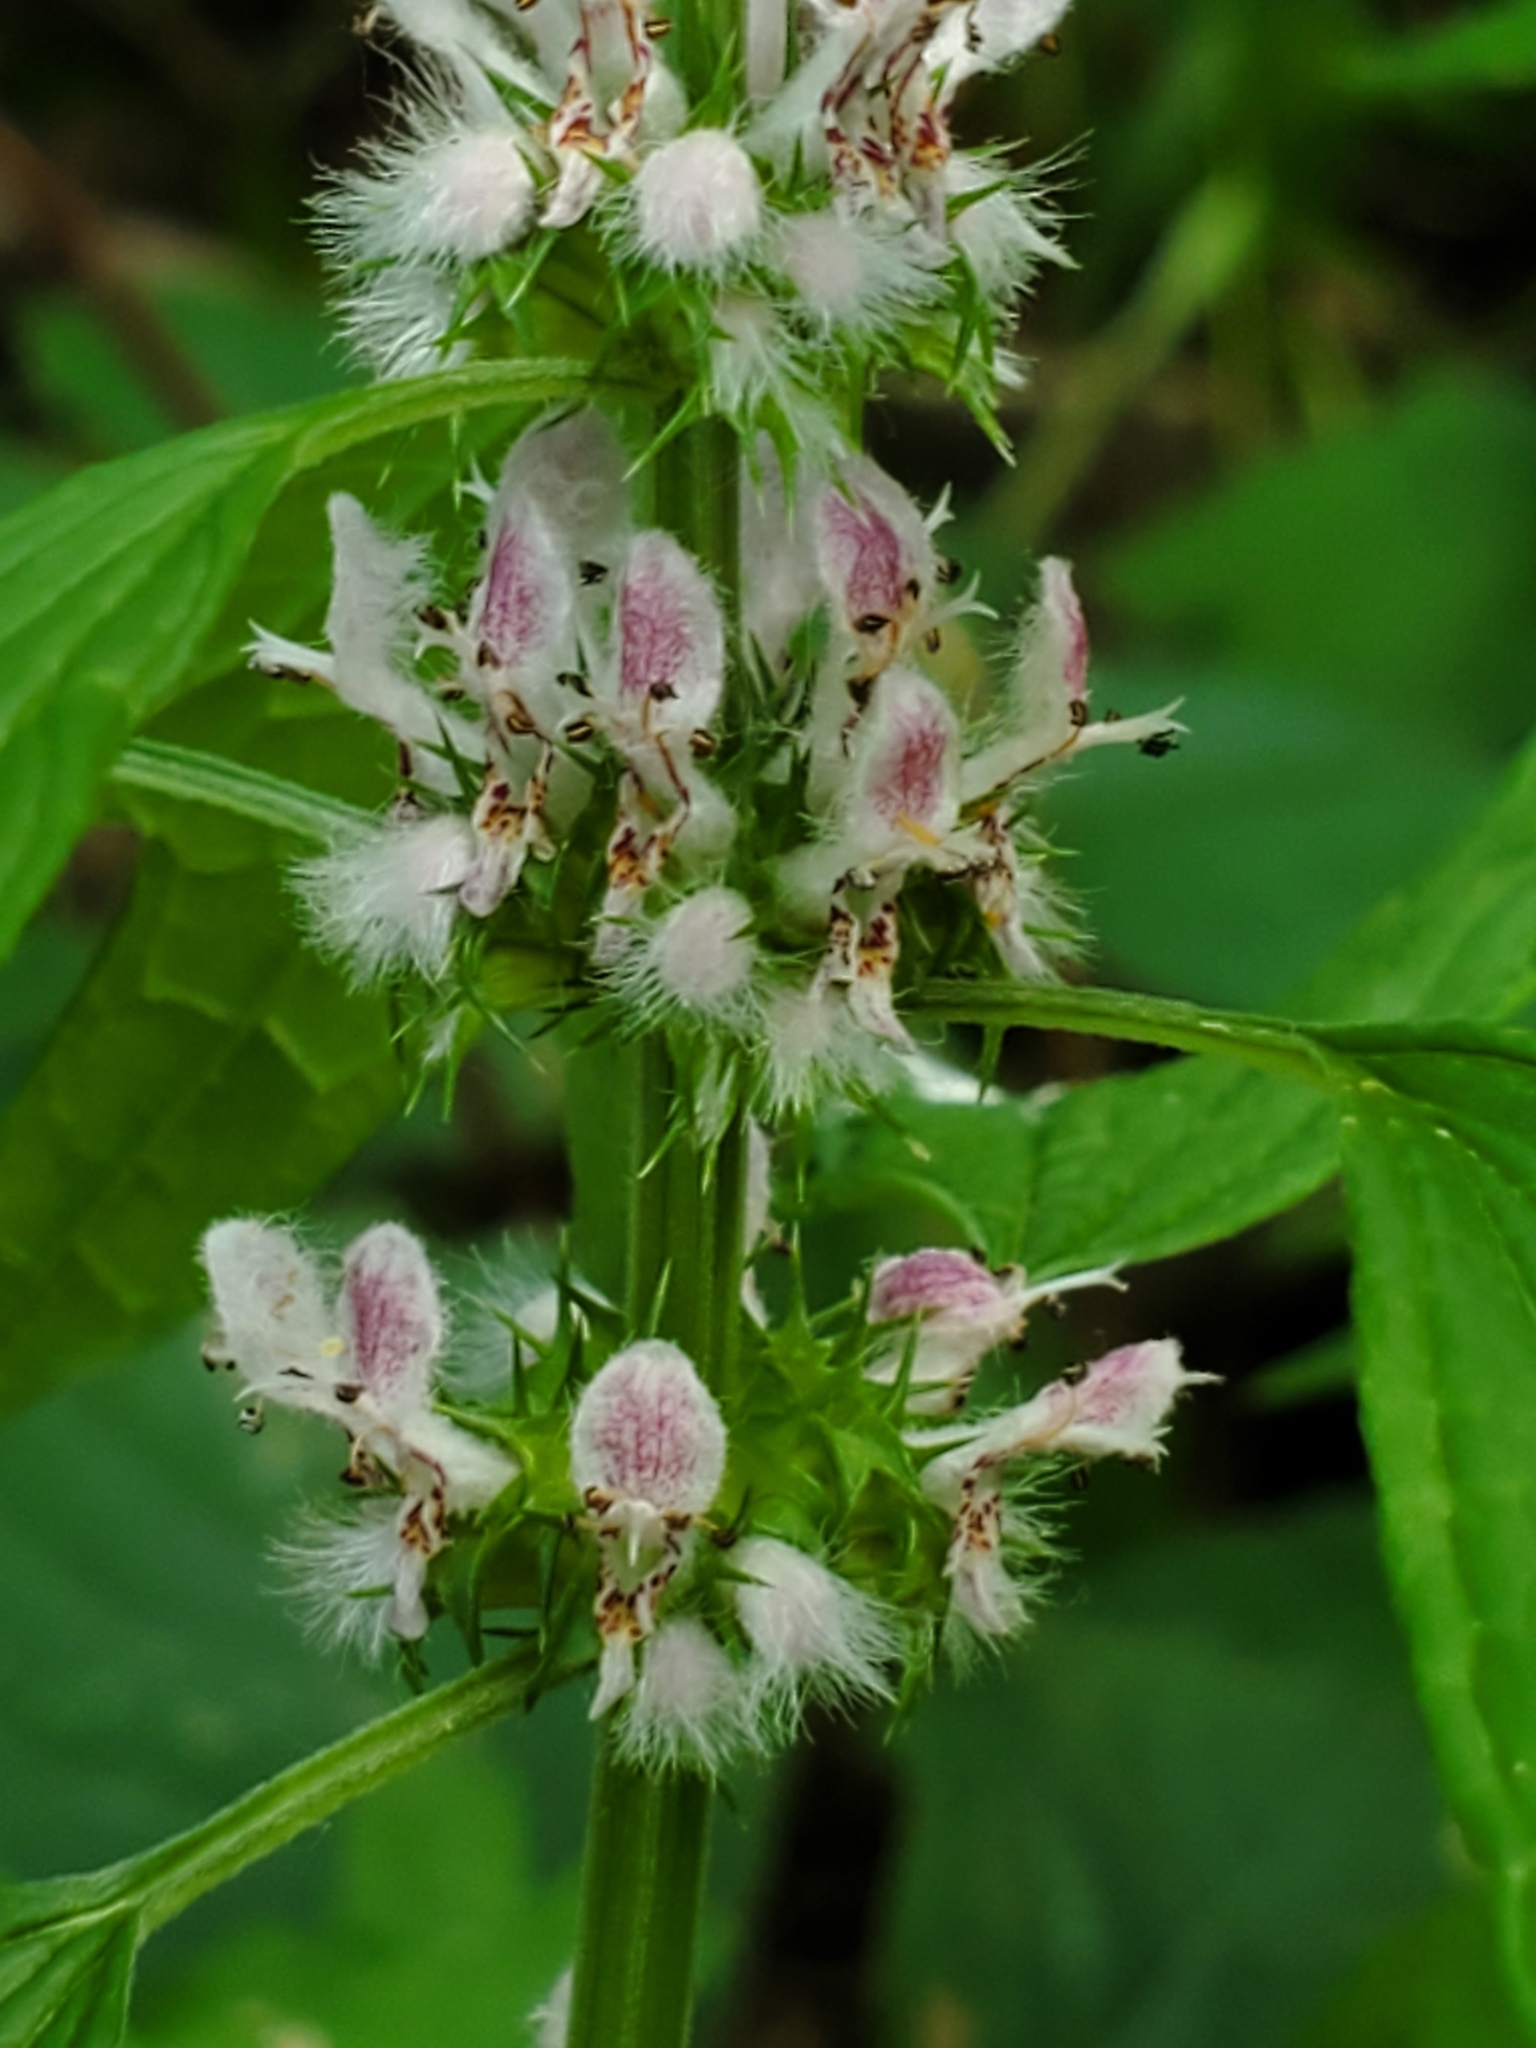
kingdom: Plantae
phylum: Tracheophyta
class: Magnoliopsida
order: Lamiales
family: Lamiaceae
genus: Leonurus
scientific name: Leonurus cardiaca
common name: Motherwort
